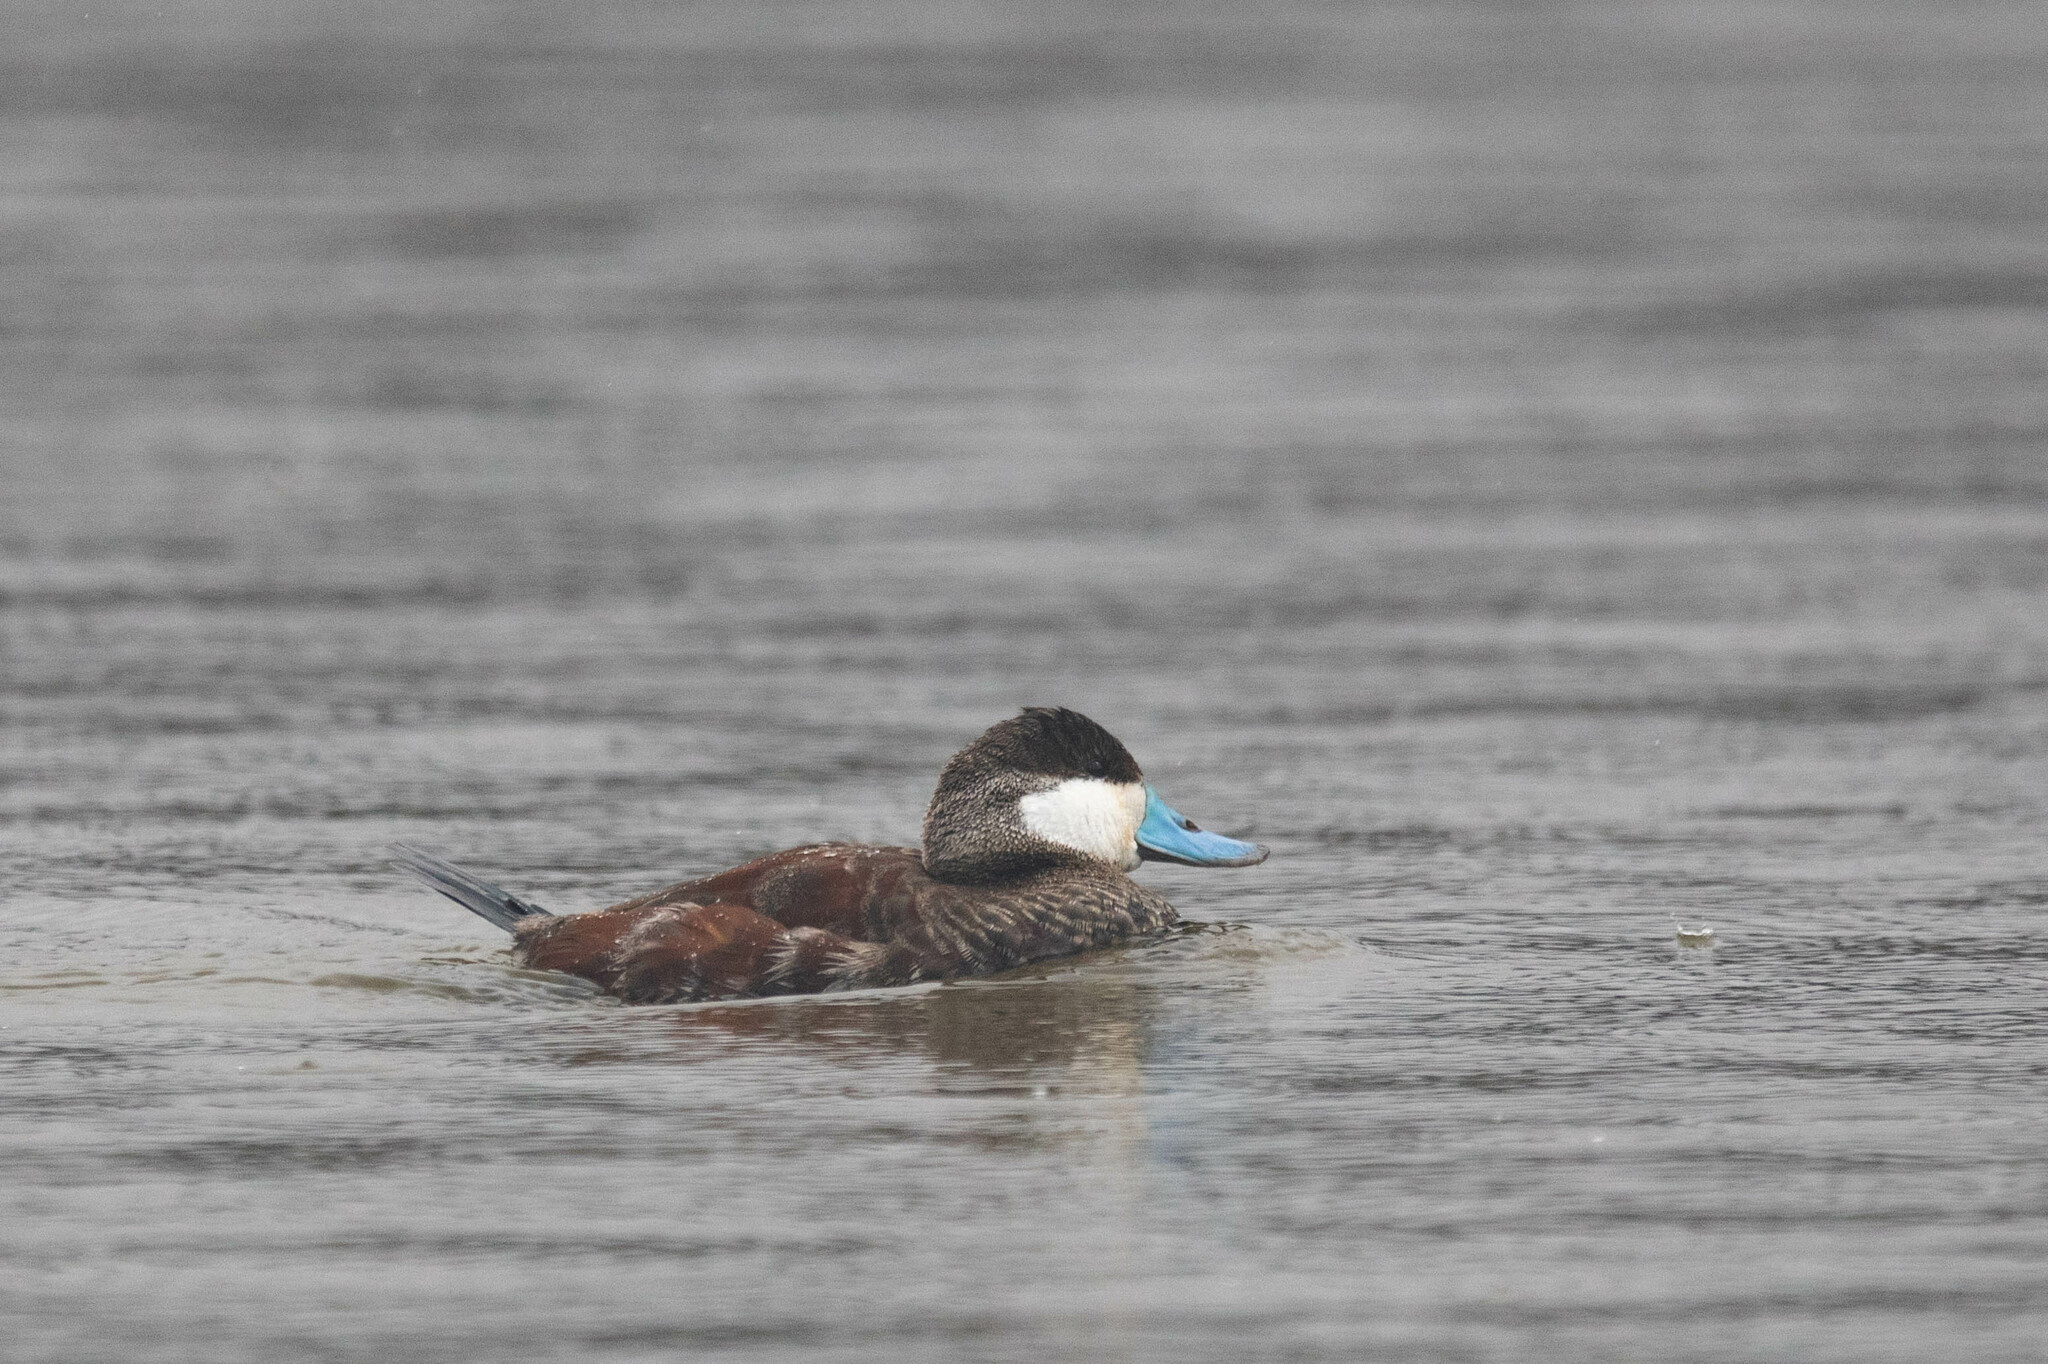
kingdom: Animalia
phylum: Chordata
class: Aves
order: Anseriformes
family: Anatidae
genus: Oxyura
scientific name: Oxyura jamaicensis
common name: Ruddy duck
